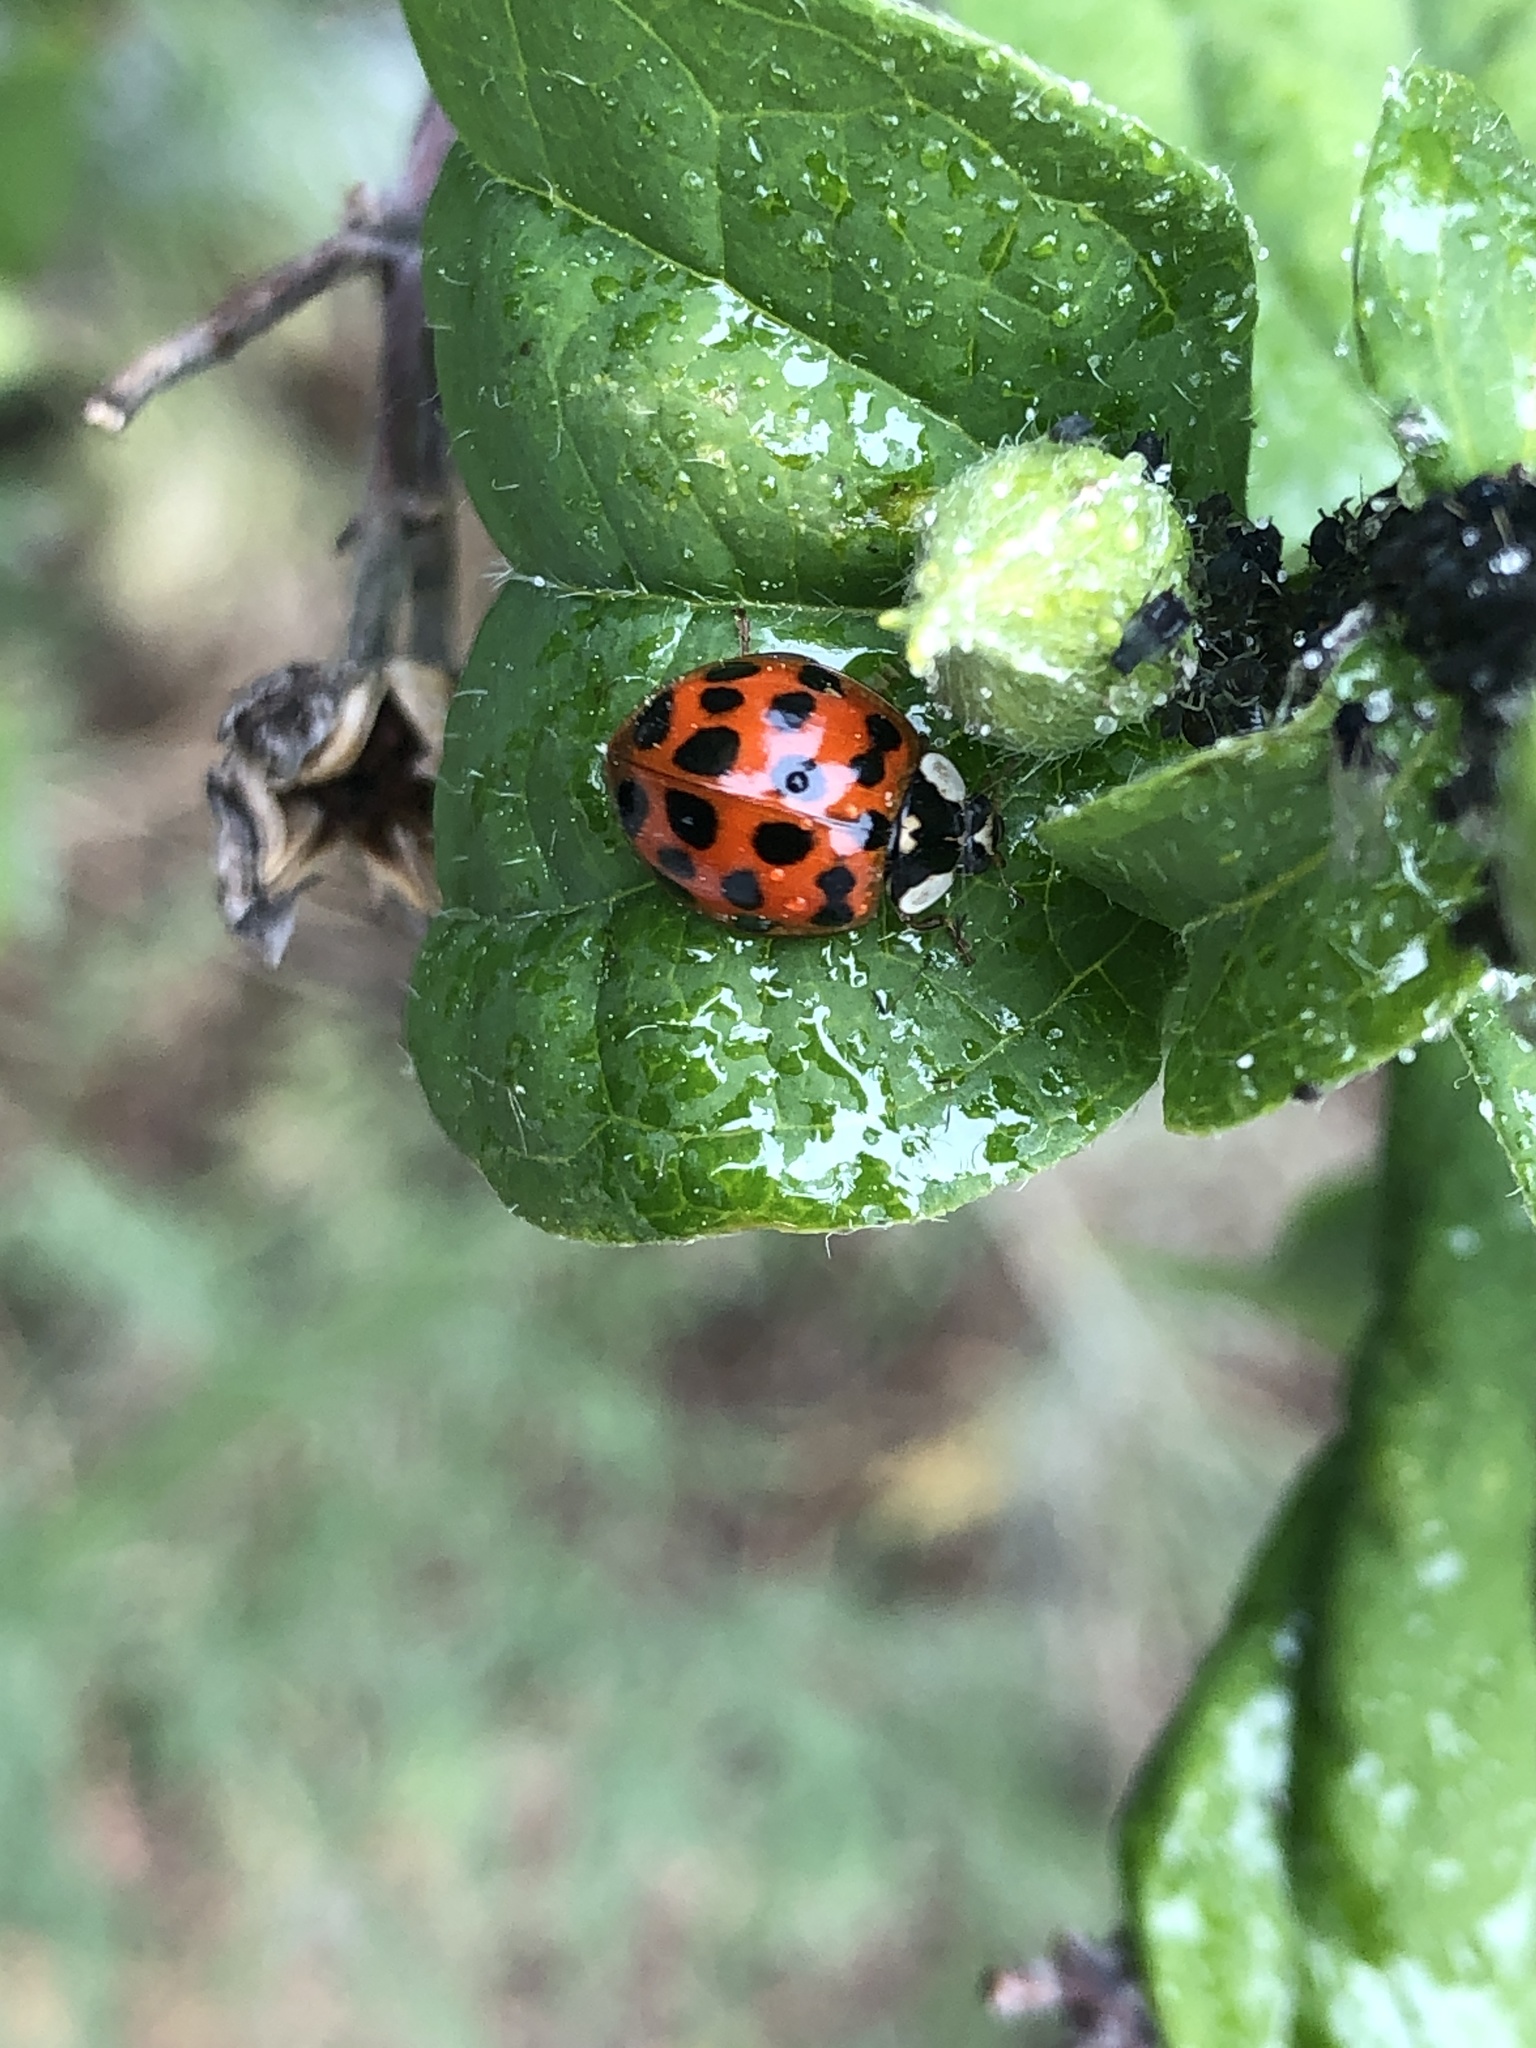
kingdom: Animalia
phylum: Arthropoda
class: Insecta
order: Coleoptera
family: Coccinellidae
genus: Harmonia
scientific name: Harmonia axyridis
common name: Harlequin ladybird
